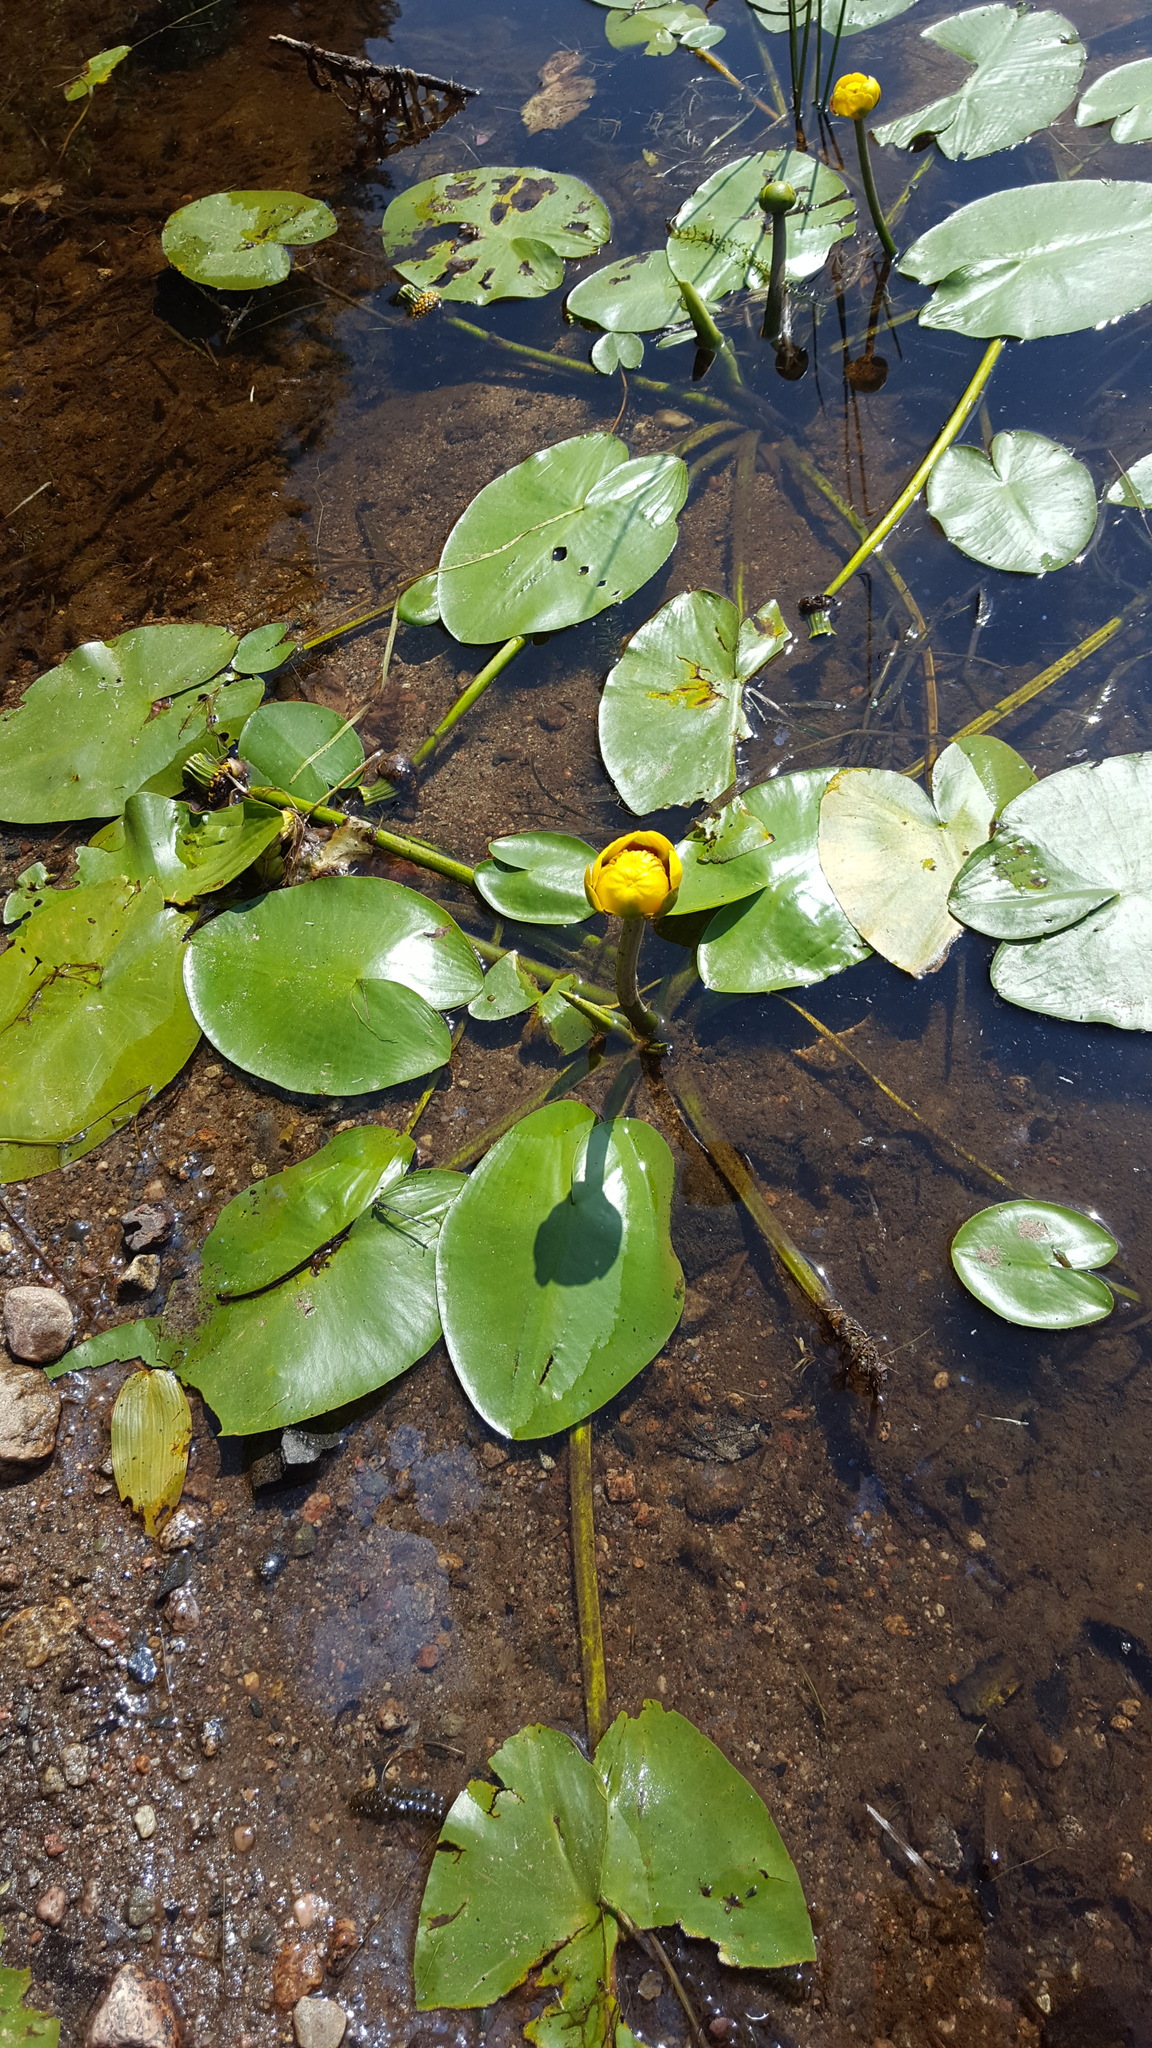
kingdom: Plantae
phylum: Tracheophyta
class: Magnoliopsida
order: Nymphaeales
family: Nymphaeaceae
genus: Nuphar
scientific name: Nuphar variegata
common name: Beaver-root
